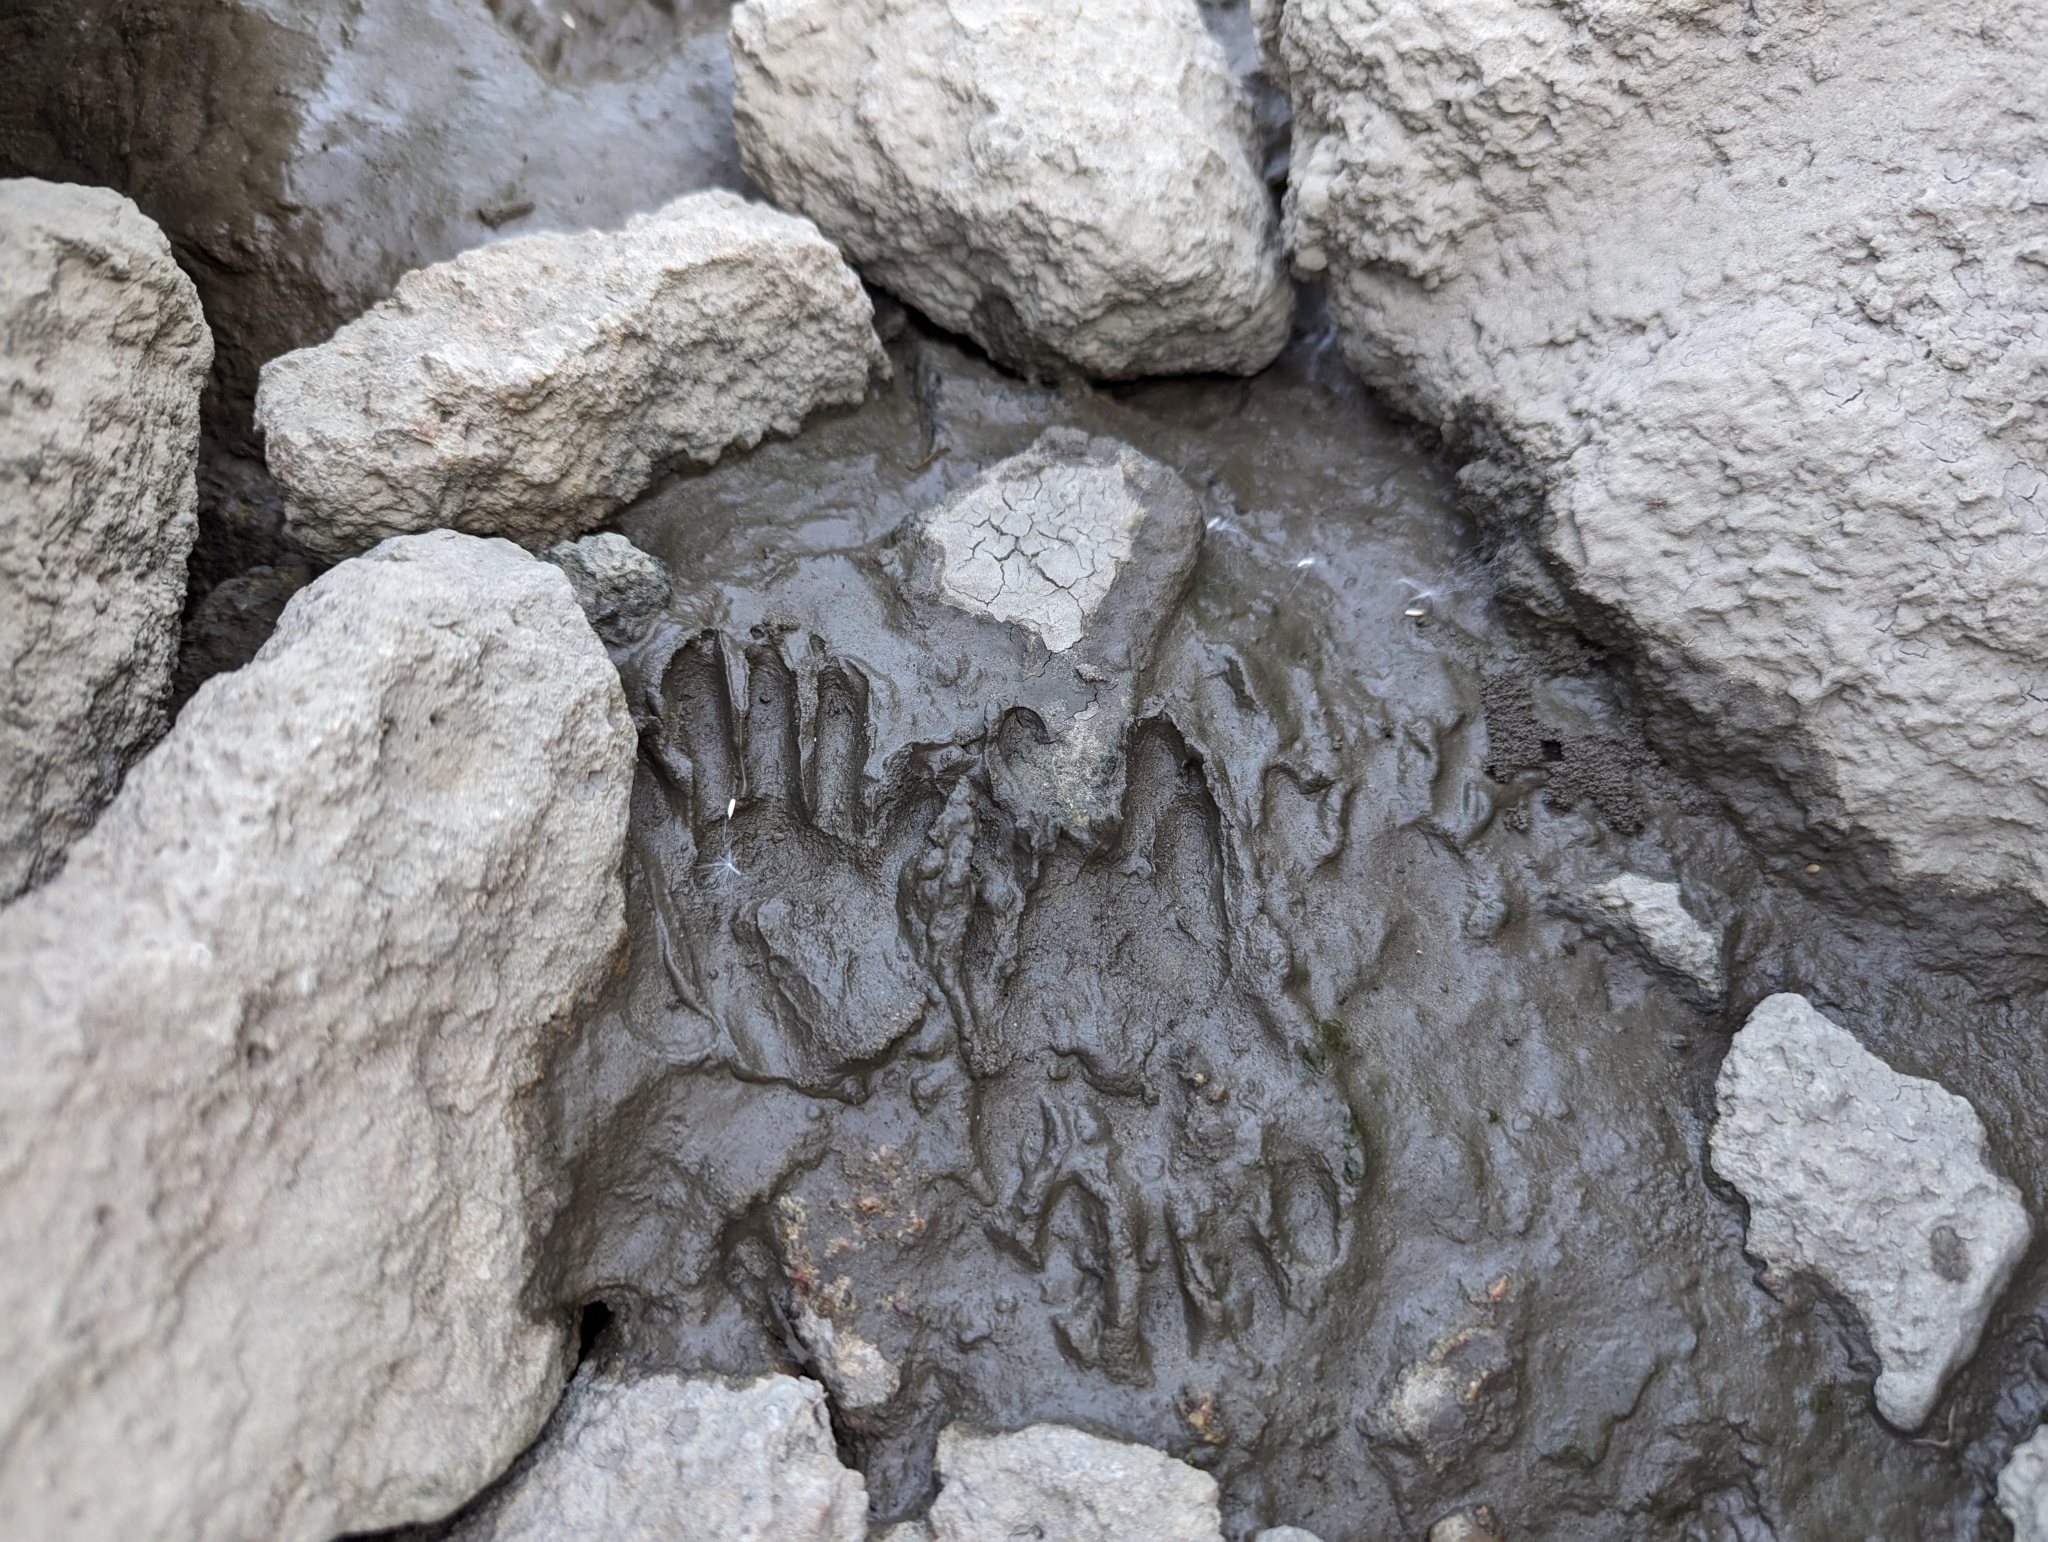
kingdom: Animalia
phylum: Chordata
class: Mammalia
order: Carnivora
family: Procyonidae
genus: Procyon
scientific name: Procyon lotor
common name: Raccoon
